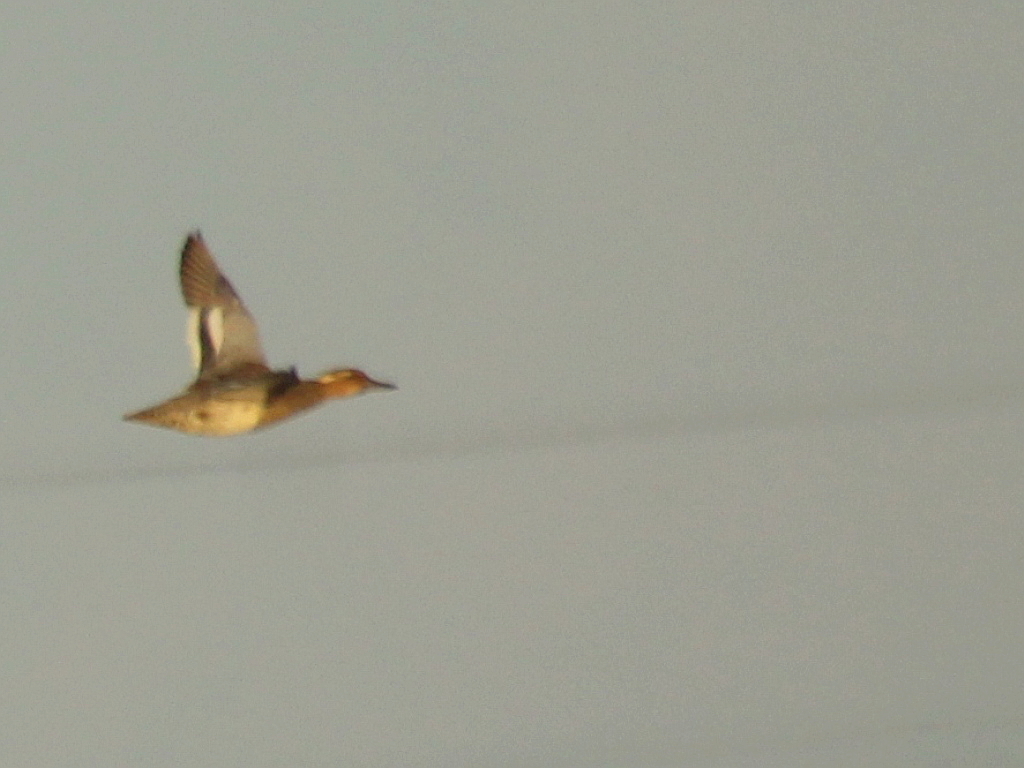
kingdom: Animalia
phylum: Chordata
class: Aves
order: Anseriformes
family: Anatidae
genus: Spatula
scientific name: Spatula querquedula
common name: Garganey
